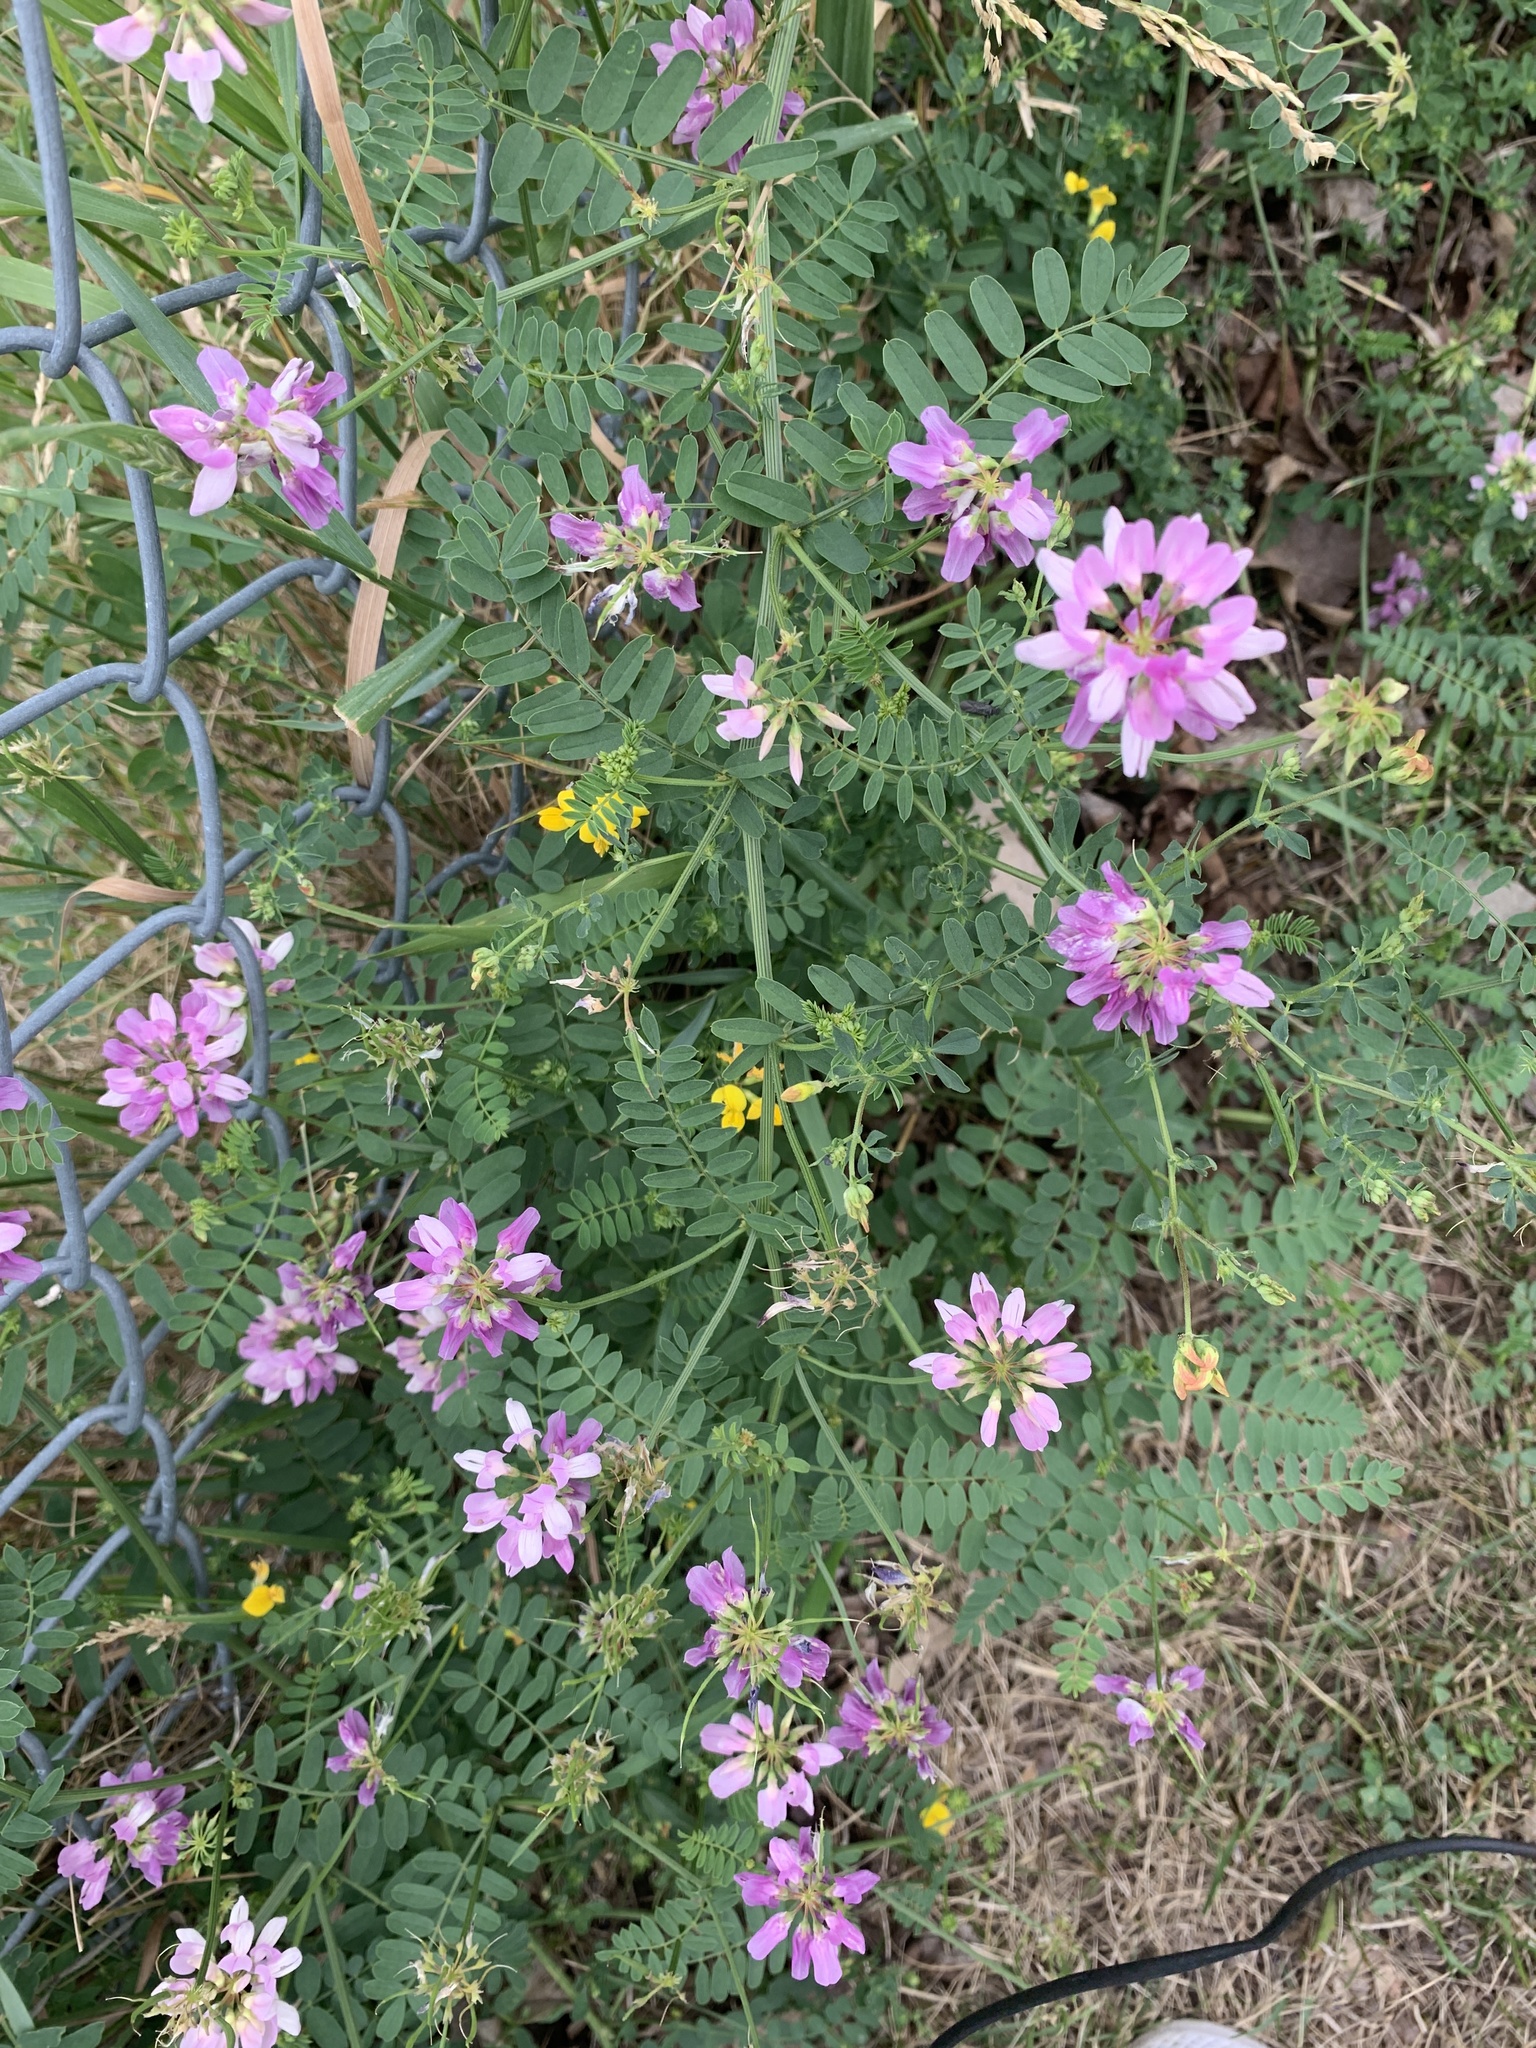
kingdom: Plantae
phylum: Tracheophyta
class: Magnoliopsida
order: Fabales
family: Fabaceae
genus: Coronilla
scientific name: Coronilla varia
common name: Crownvetch
